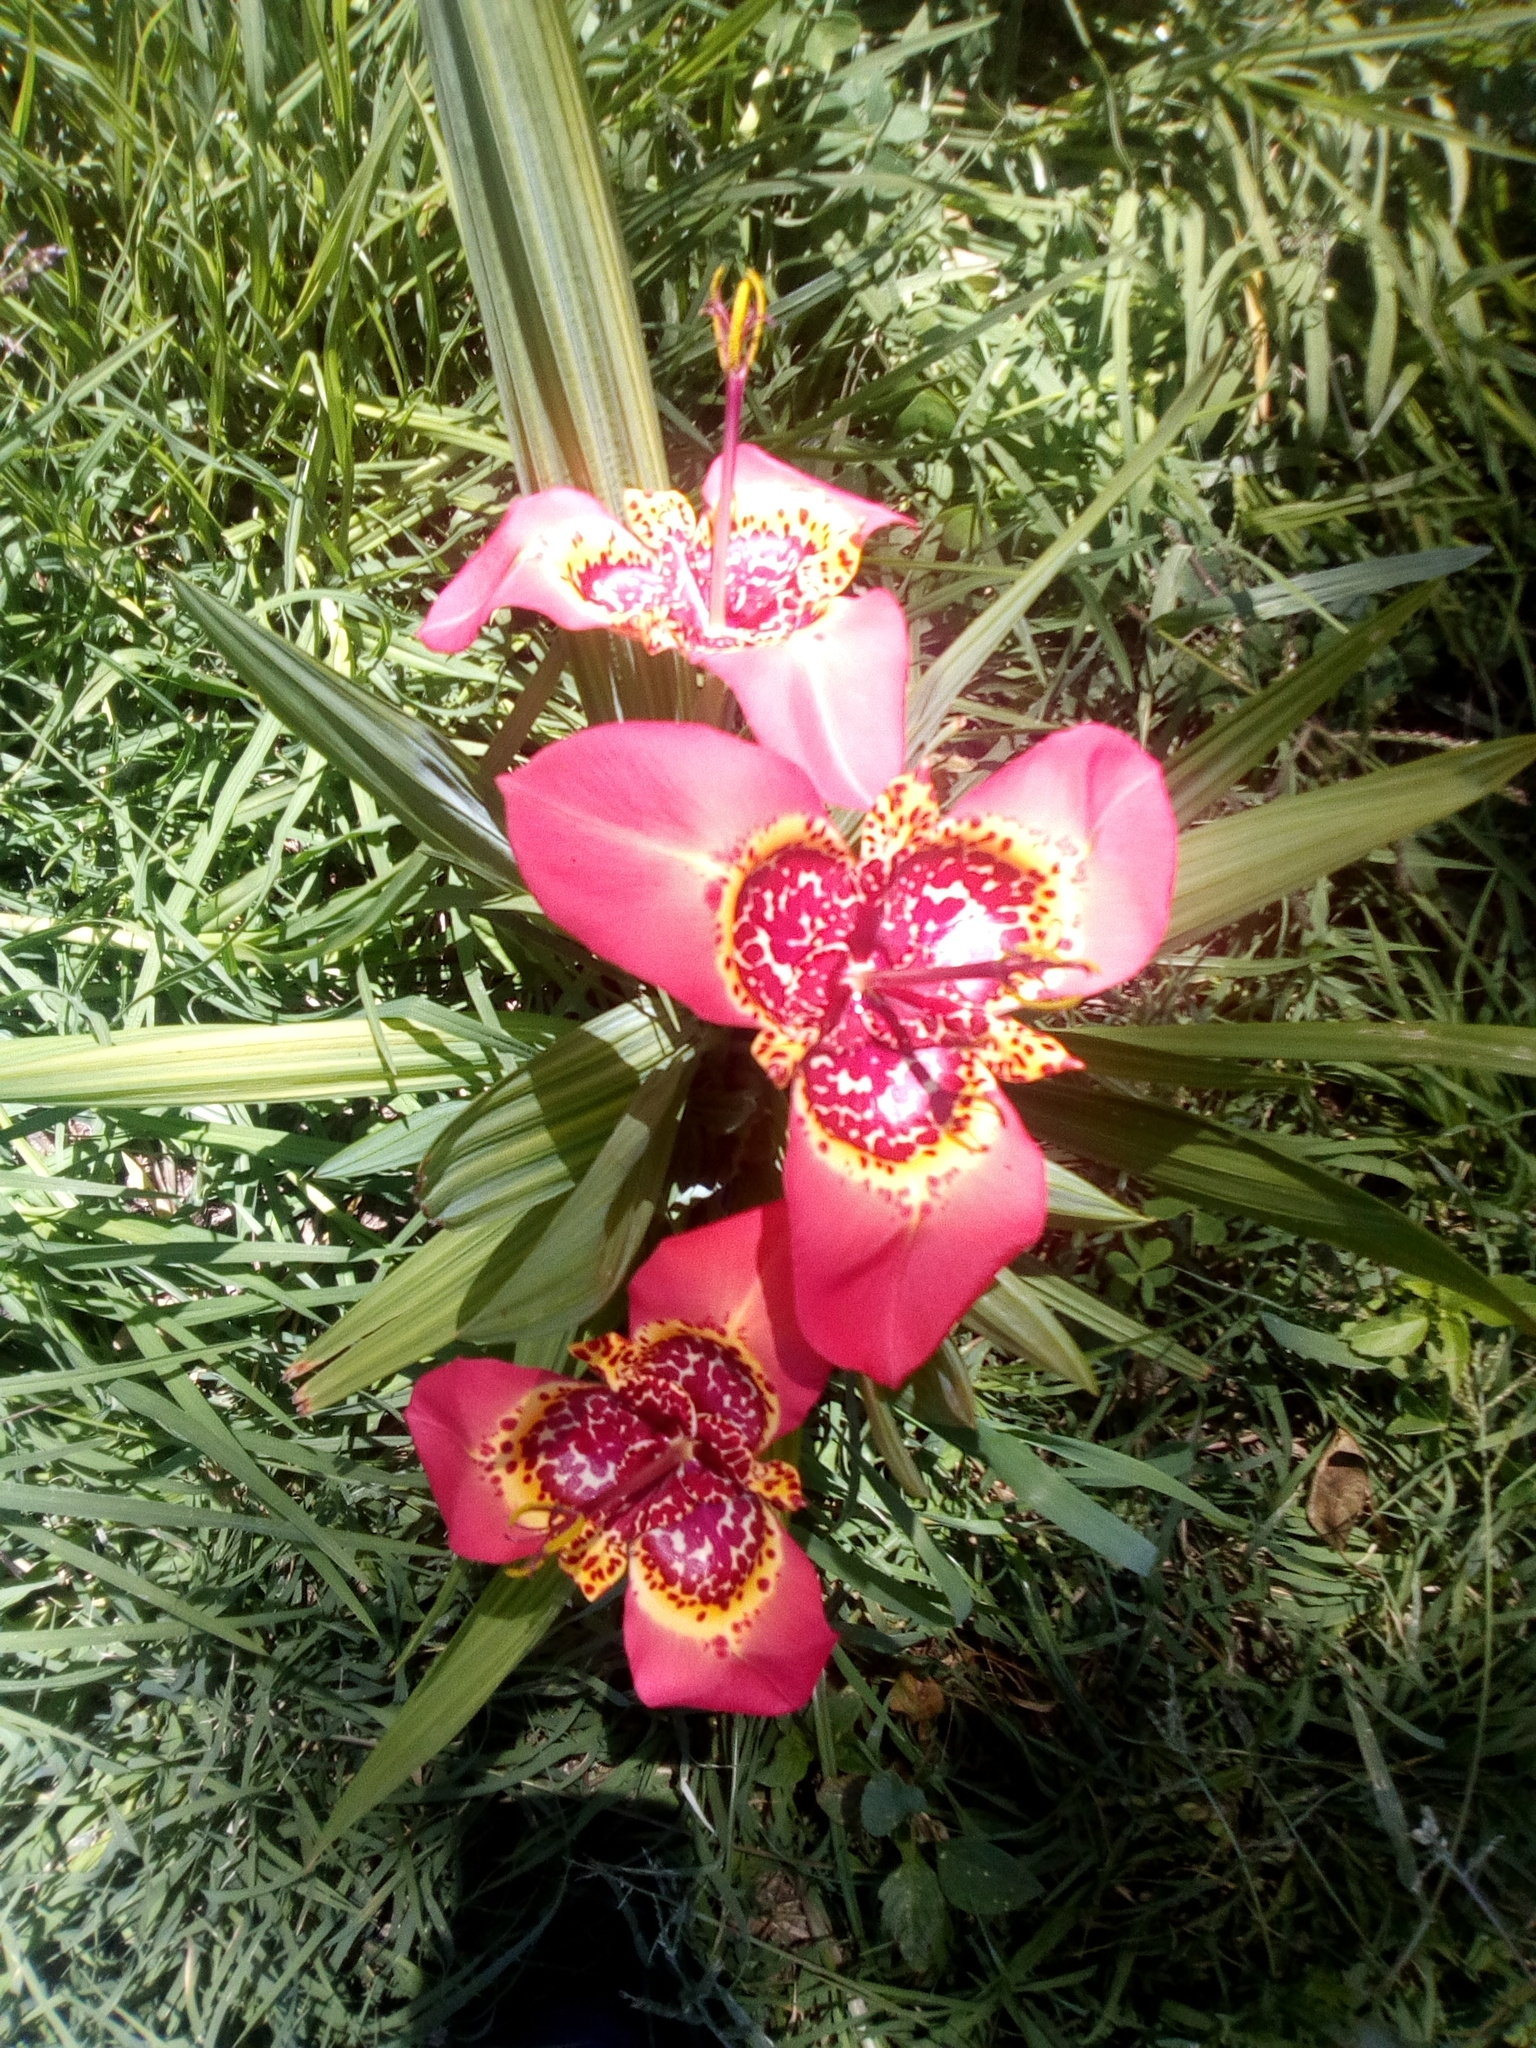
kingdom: Plantae
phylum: Tracheophyta
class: Liliopsida
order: Asparagales
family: Iridaceae
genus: Tigridia
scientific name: Tigridia pavonia
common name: Peacock-flower
